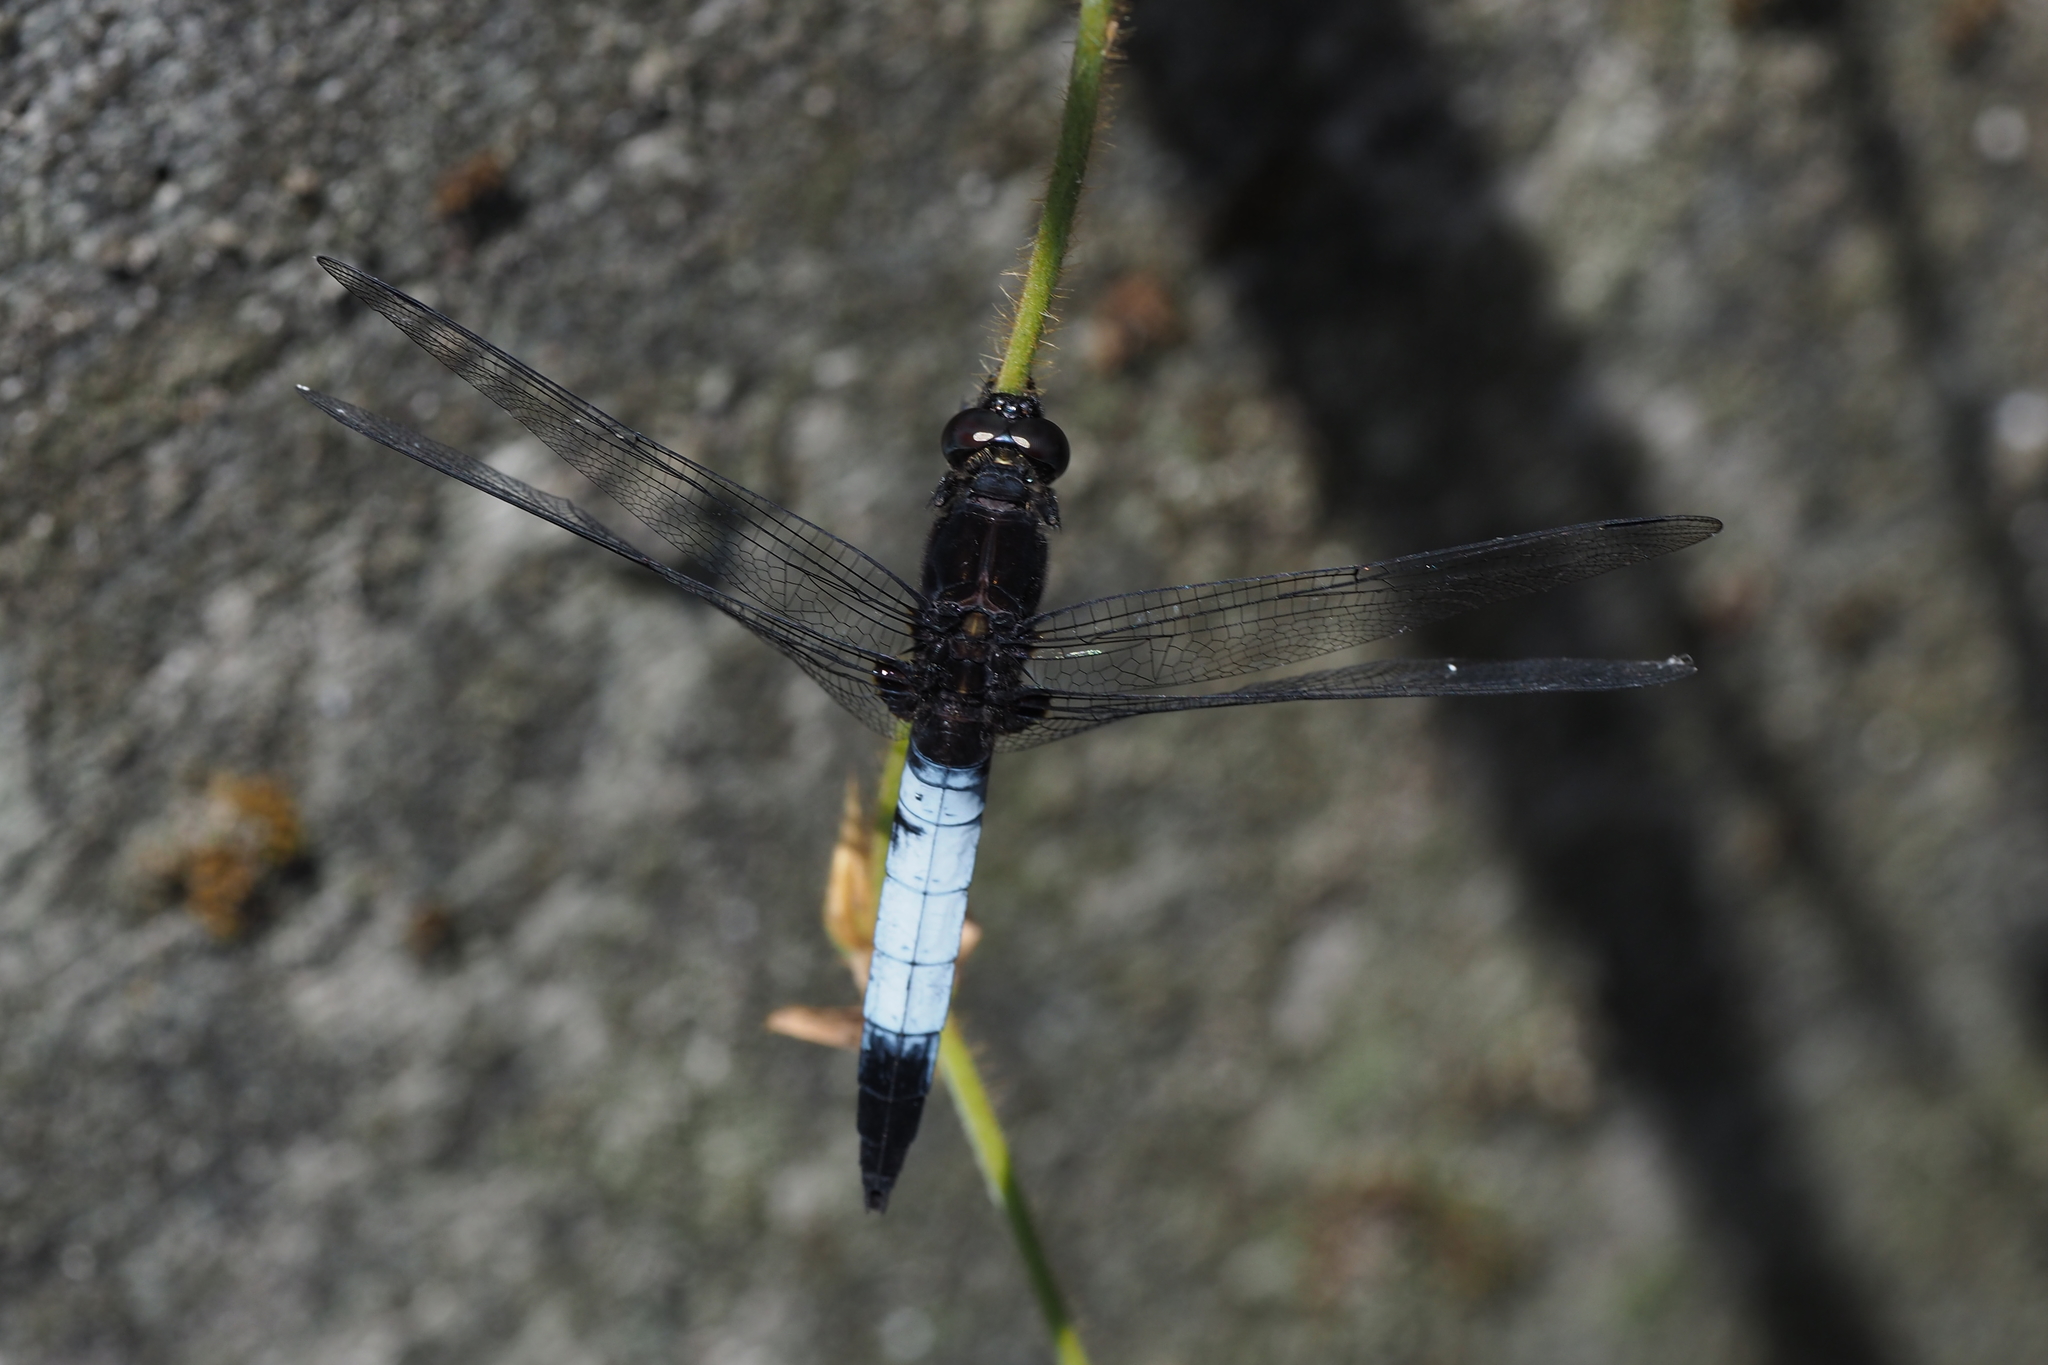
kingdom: Animalia
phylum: Arthropoda
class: Insecta
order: Odonata
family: Libellulidae
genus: Orthetrum
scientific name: Orthetrum triangulare
